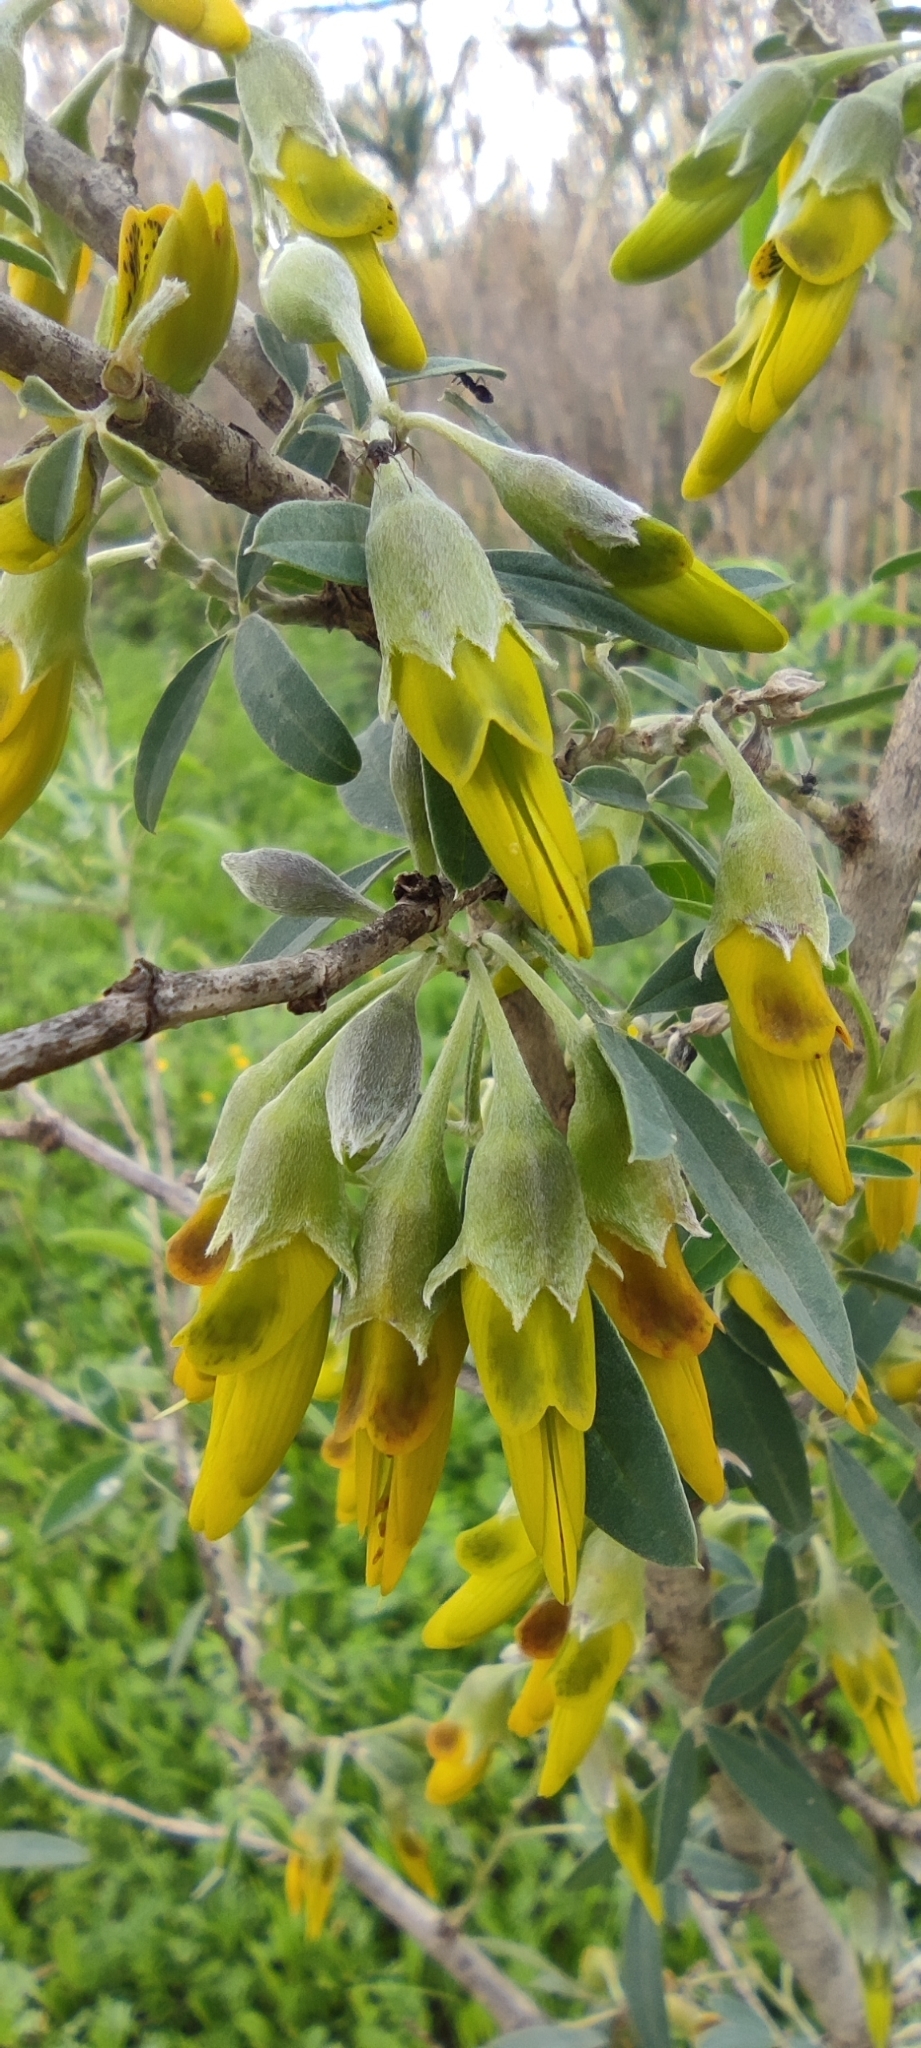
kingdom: Plantae
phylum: Tracheophyta
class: Magnoliopsida
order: Fabales
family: Fabaceae
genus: Anagyris
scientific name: Anagyris foetida
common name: Stinking bean trefoil
